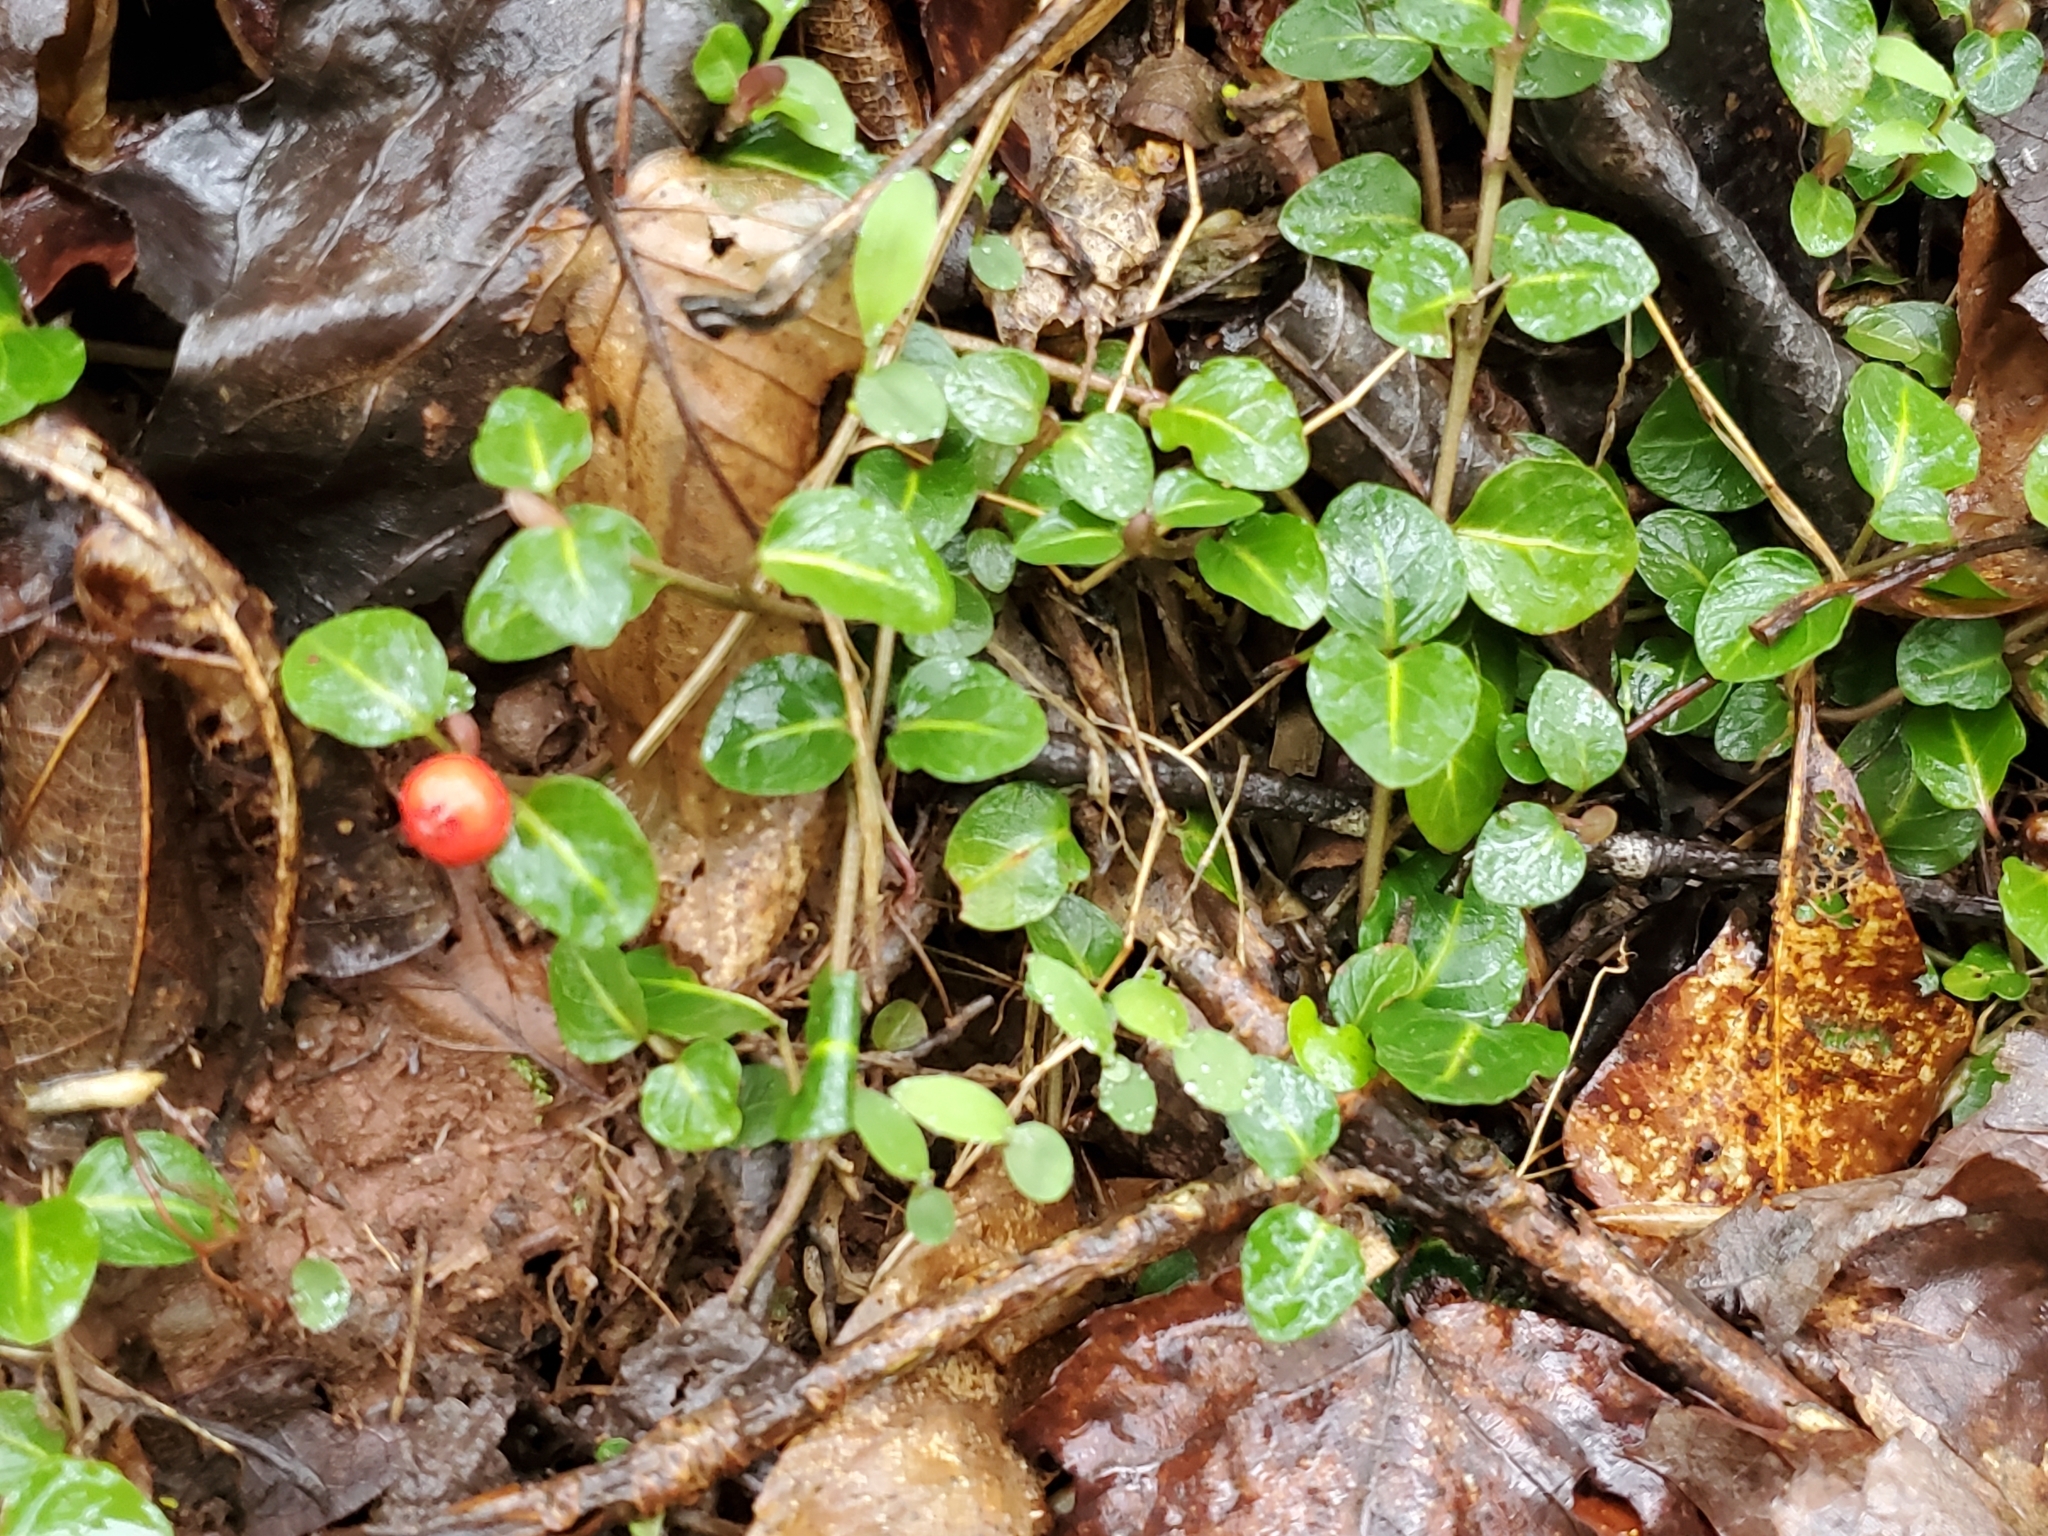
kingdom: Plantae
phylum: Tracheophyta
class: Magnoliopsida
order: Gentianales
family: Rubiaceae
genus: Mitchella
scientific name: Mitchella repens
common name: Partridge-berry
